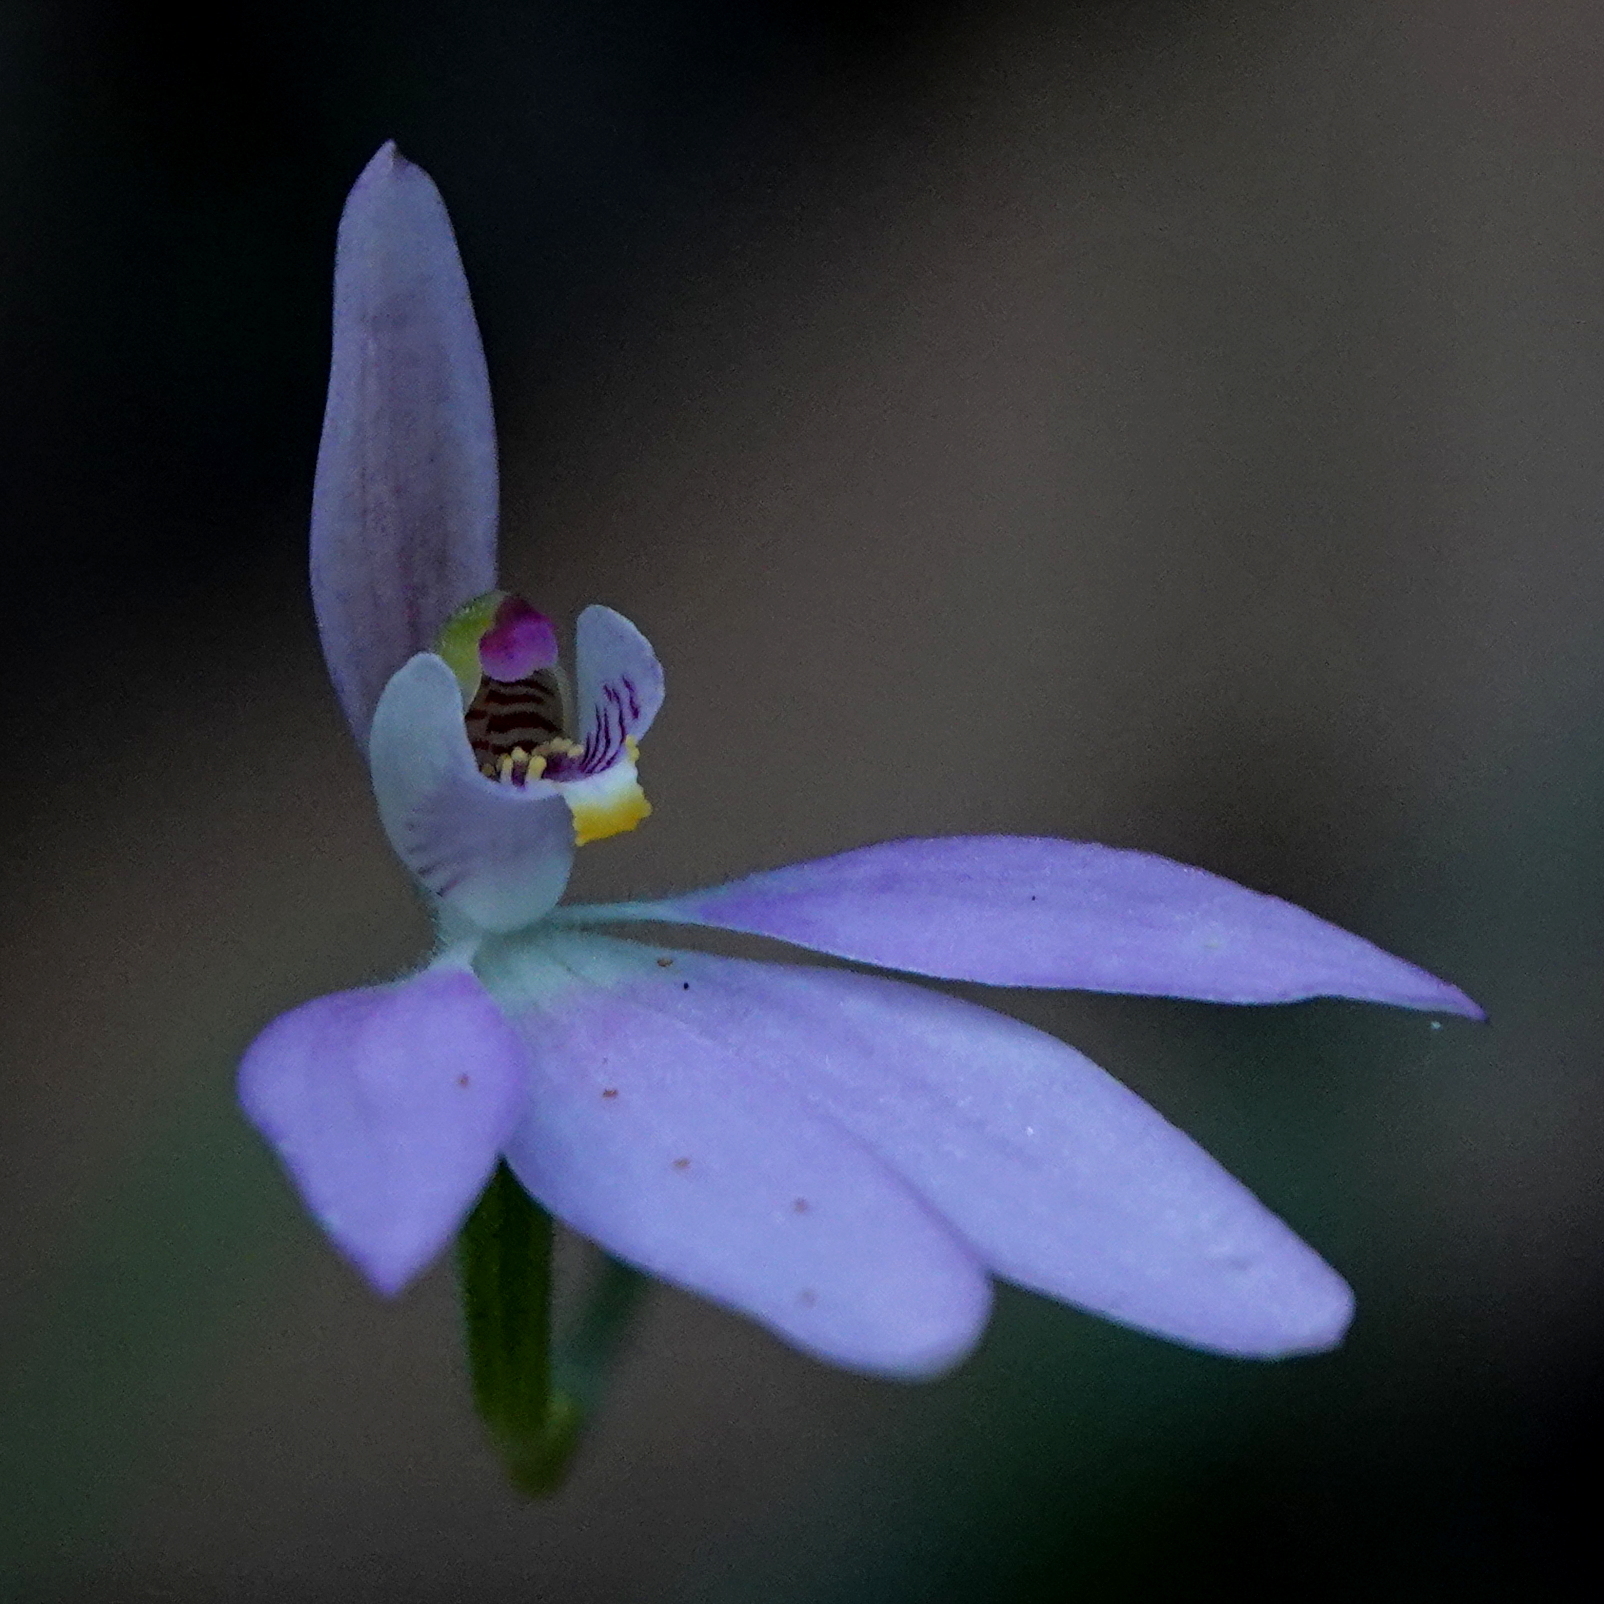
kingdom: Plantae
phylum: Tracheophyta
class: Liliopsida
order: Asparagales
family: Orchidaceae
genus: Caladenia
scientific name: Caladenia carnea
